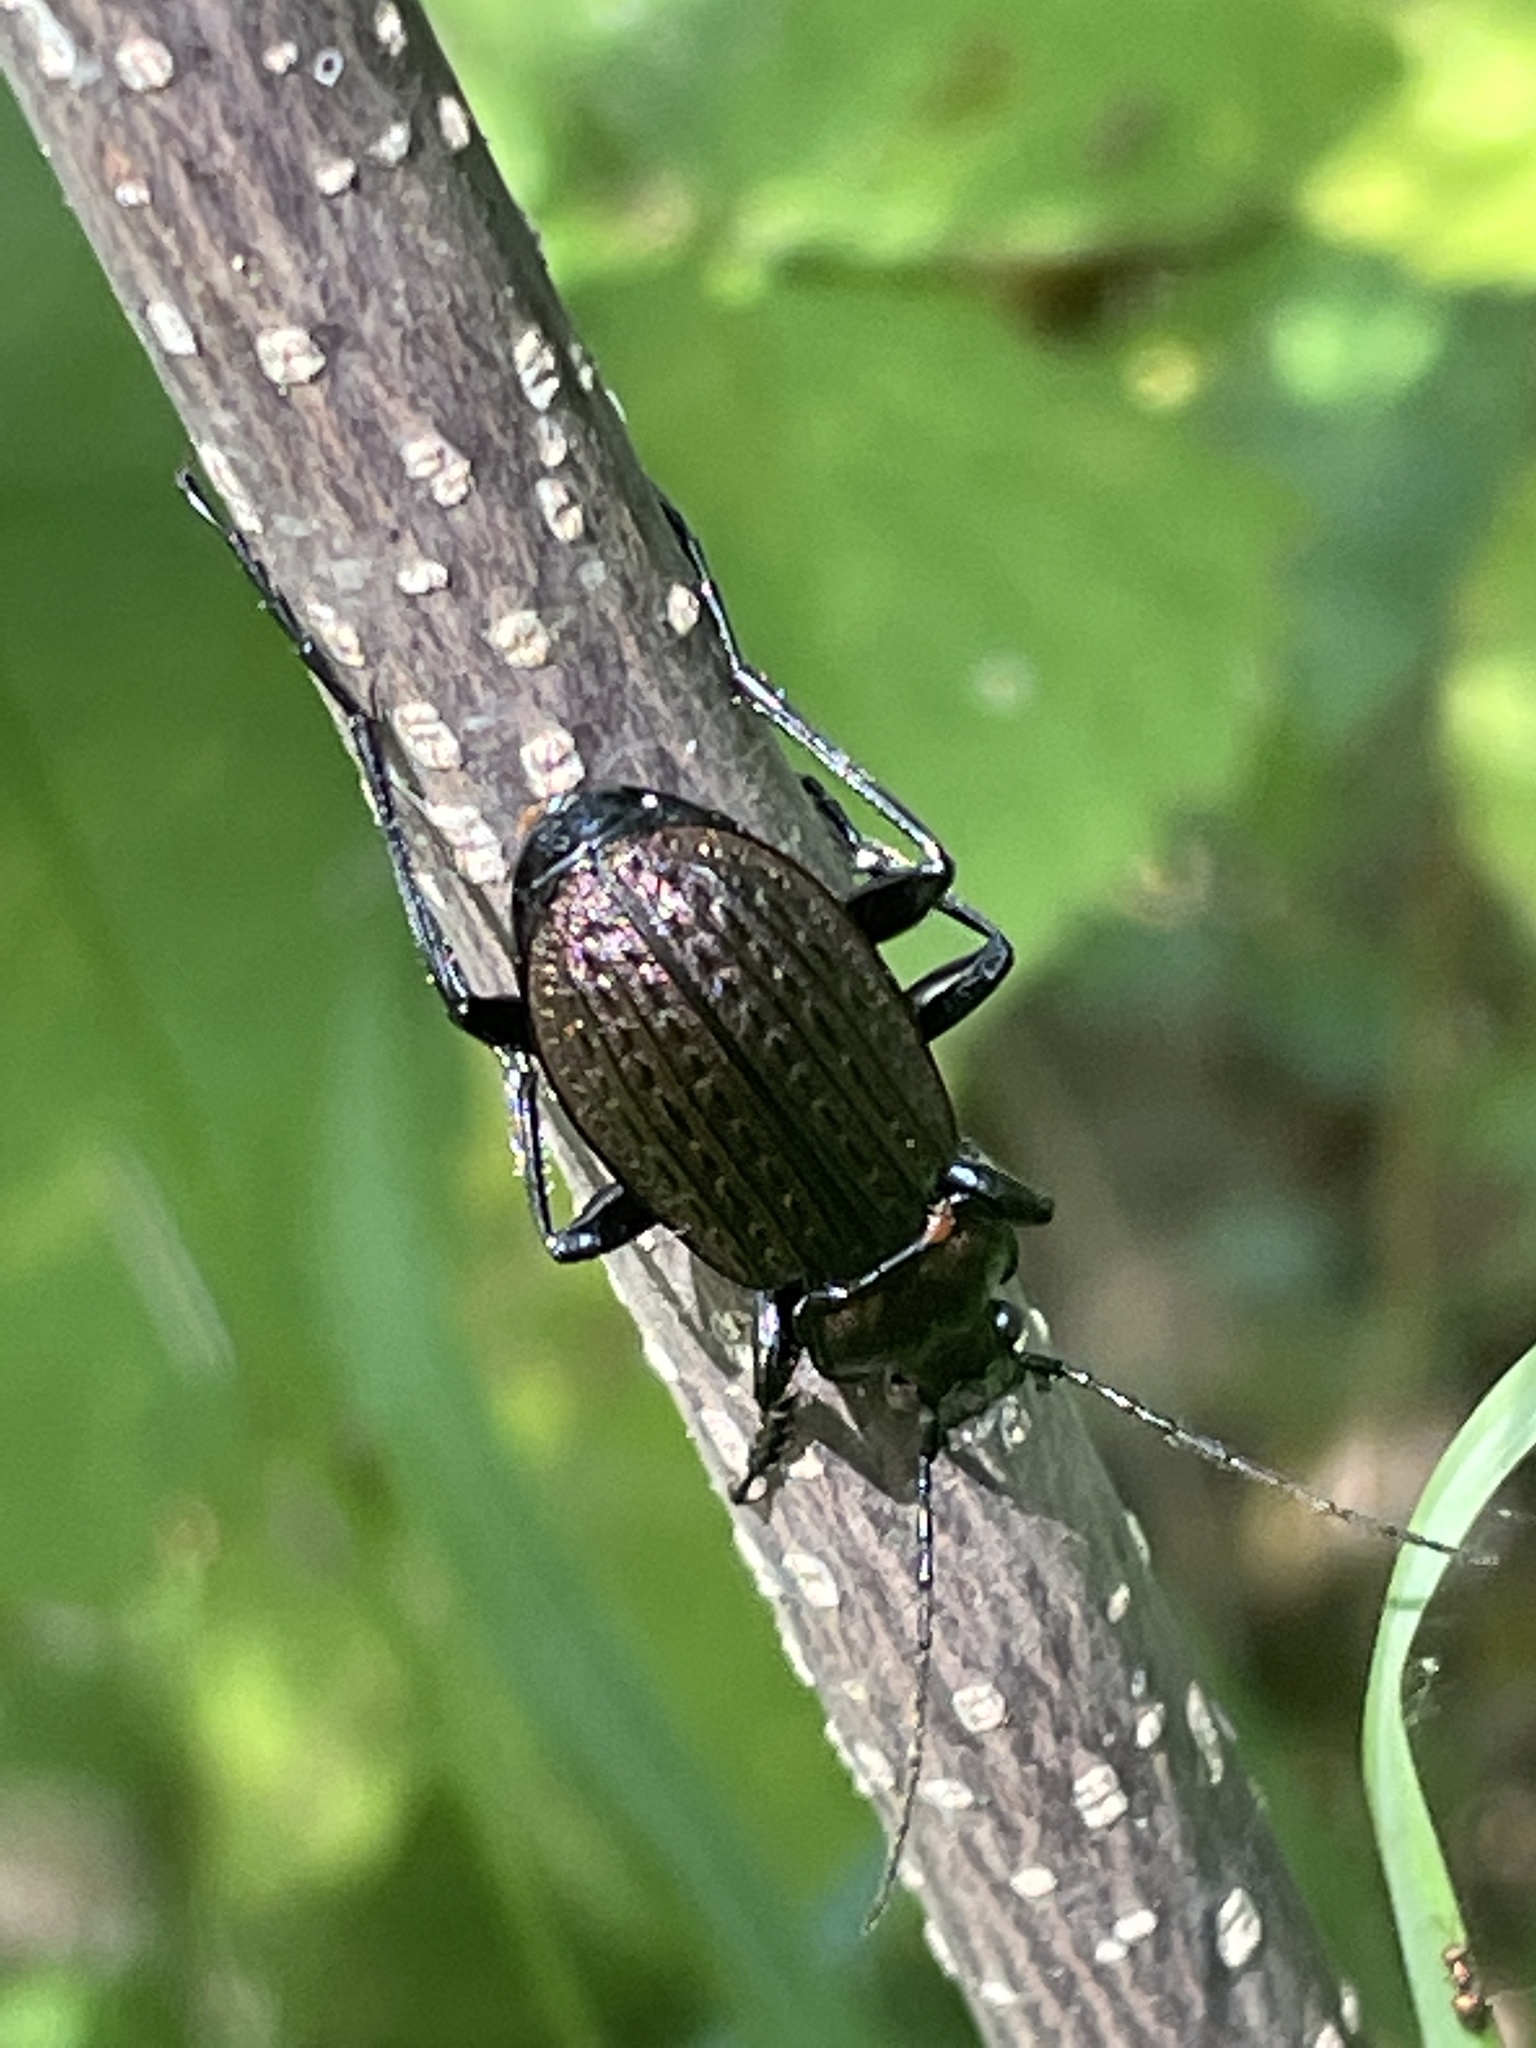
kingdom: Animalia
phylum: Arthropoda
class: Insecta
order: Coleoptera
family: Carabidae
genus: Carabus
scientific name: Carabus granulatus
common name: Granulate ground beetle
